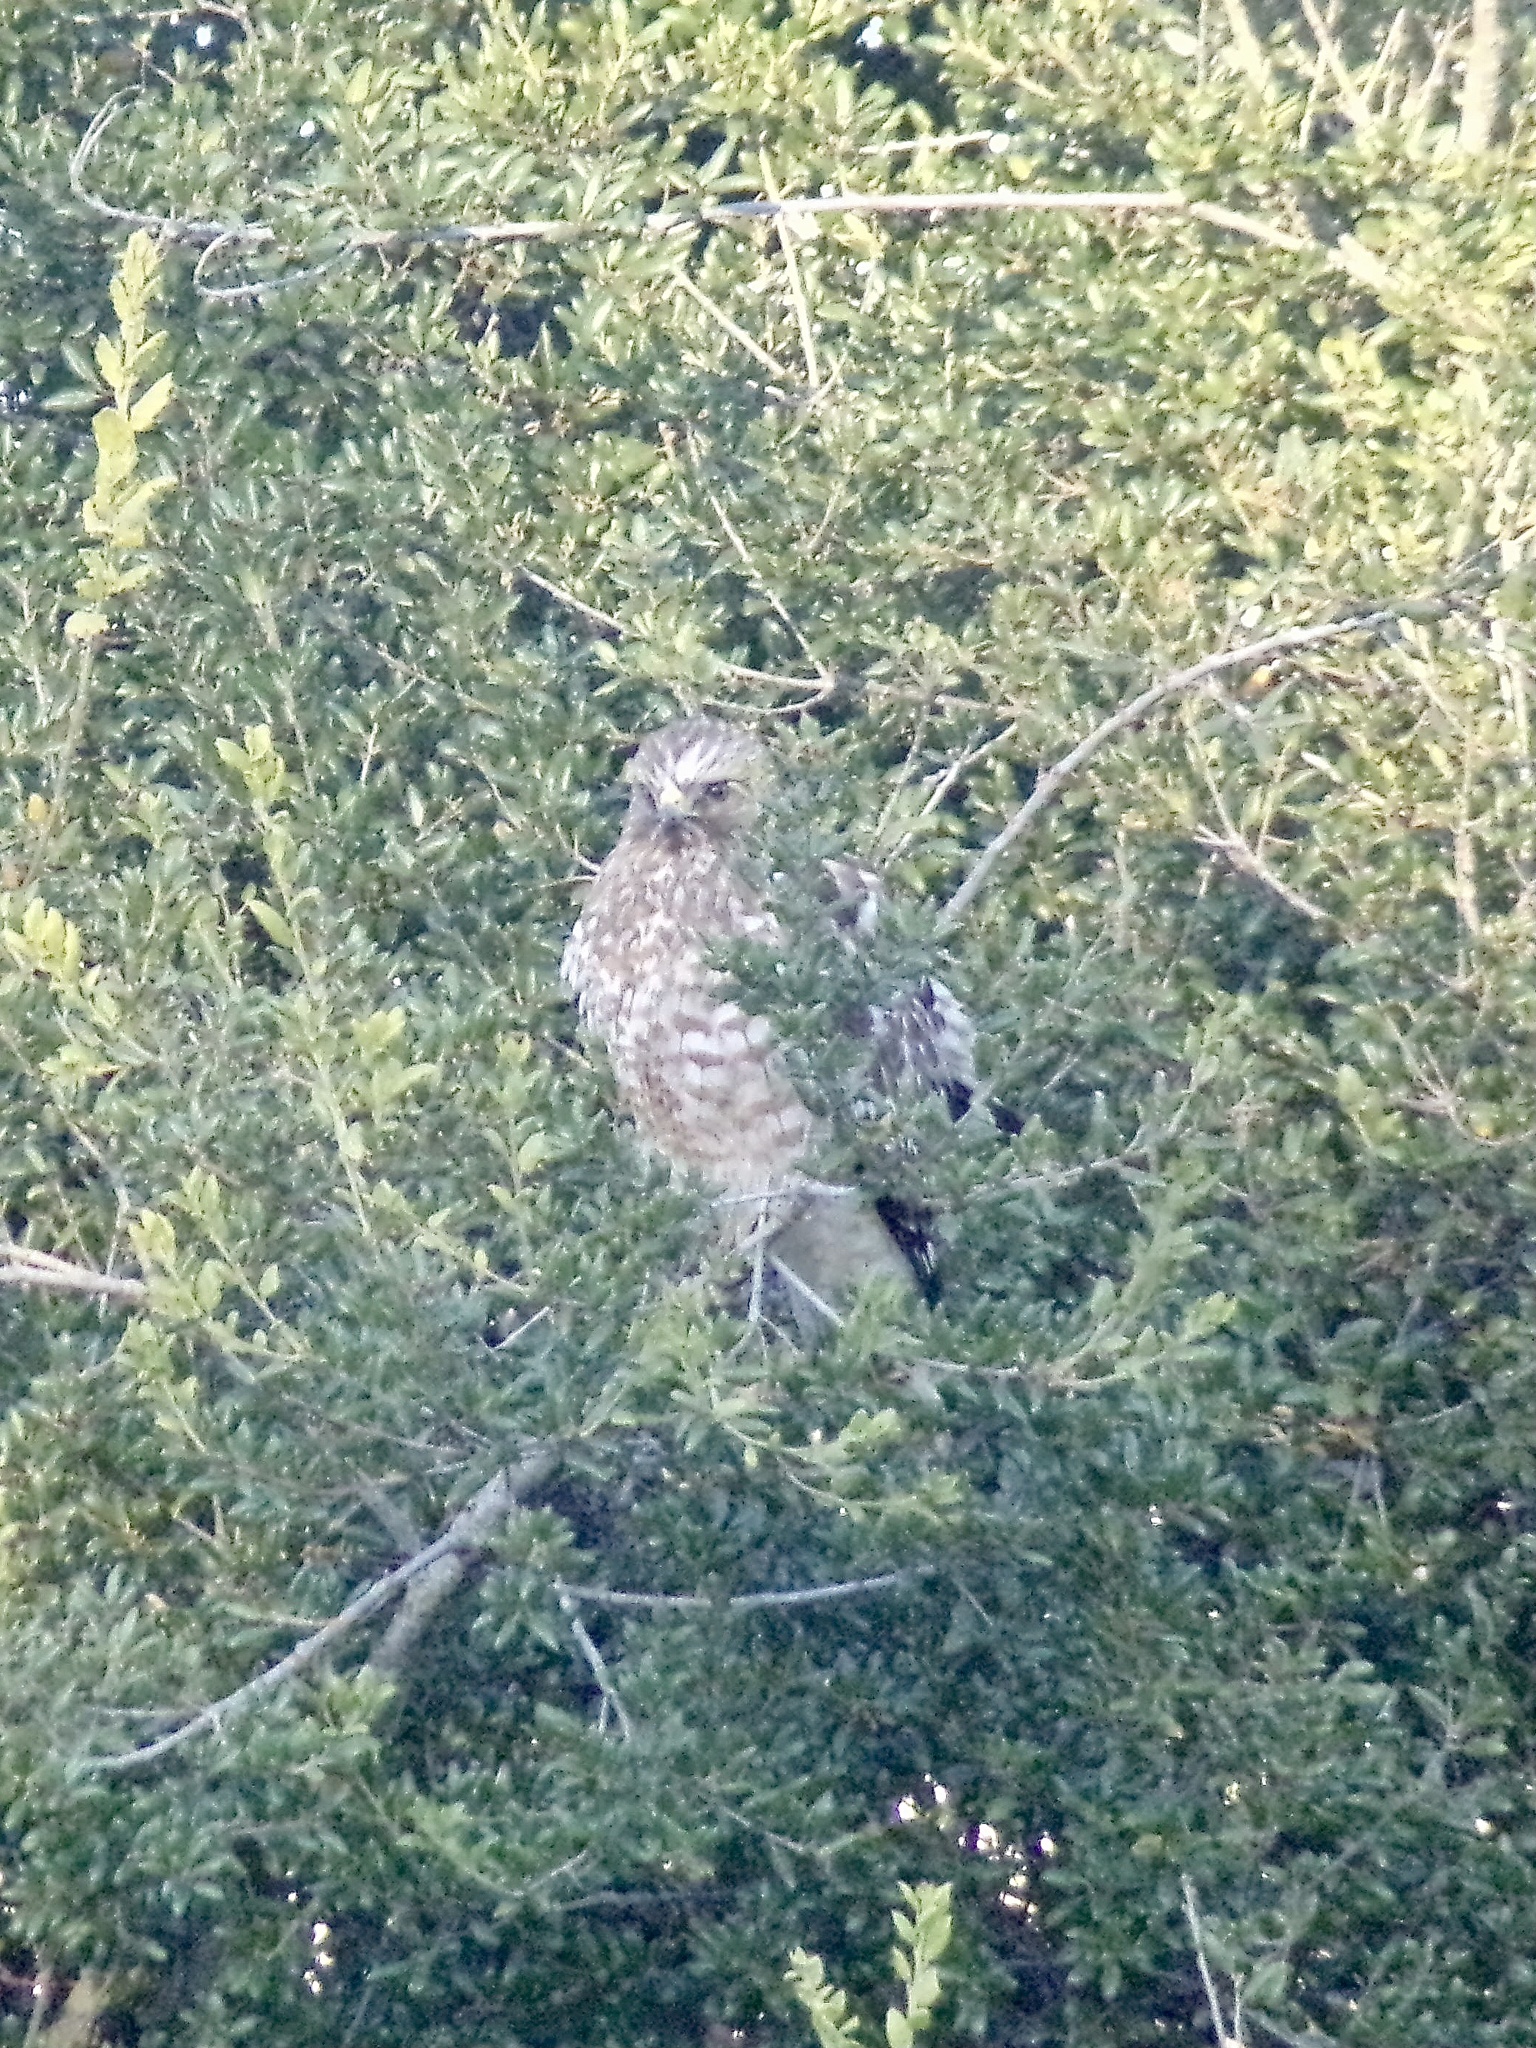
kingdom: Animalia
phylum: Chordata
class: Aves
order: Accipitriformes
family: Accipitridae
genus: Buteo
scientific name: Buteo lineatus
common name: Red-shouldered hawk
